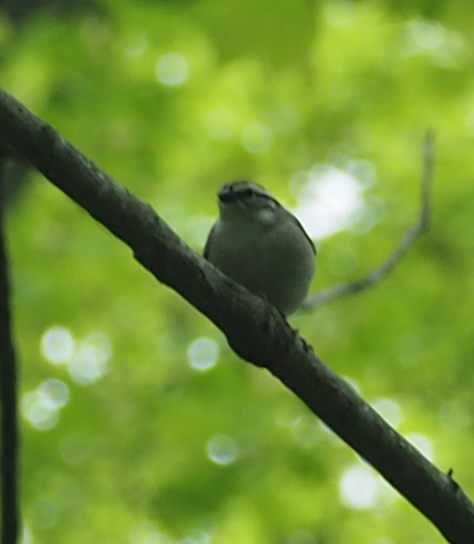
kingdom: Animalia
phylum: Chordata
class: Aves
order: Passeriformes
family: Passerellidae
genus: Spizella
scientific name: Spizella passerina
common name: Chipping sparrow
